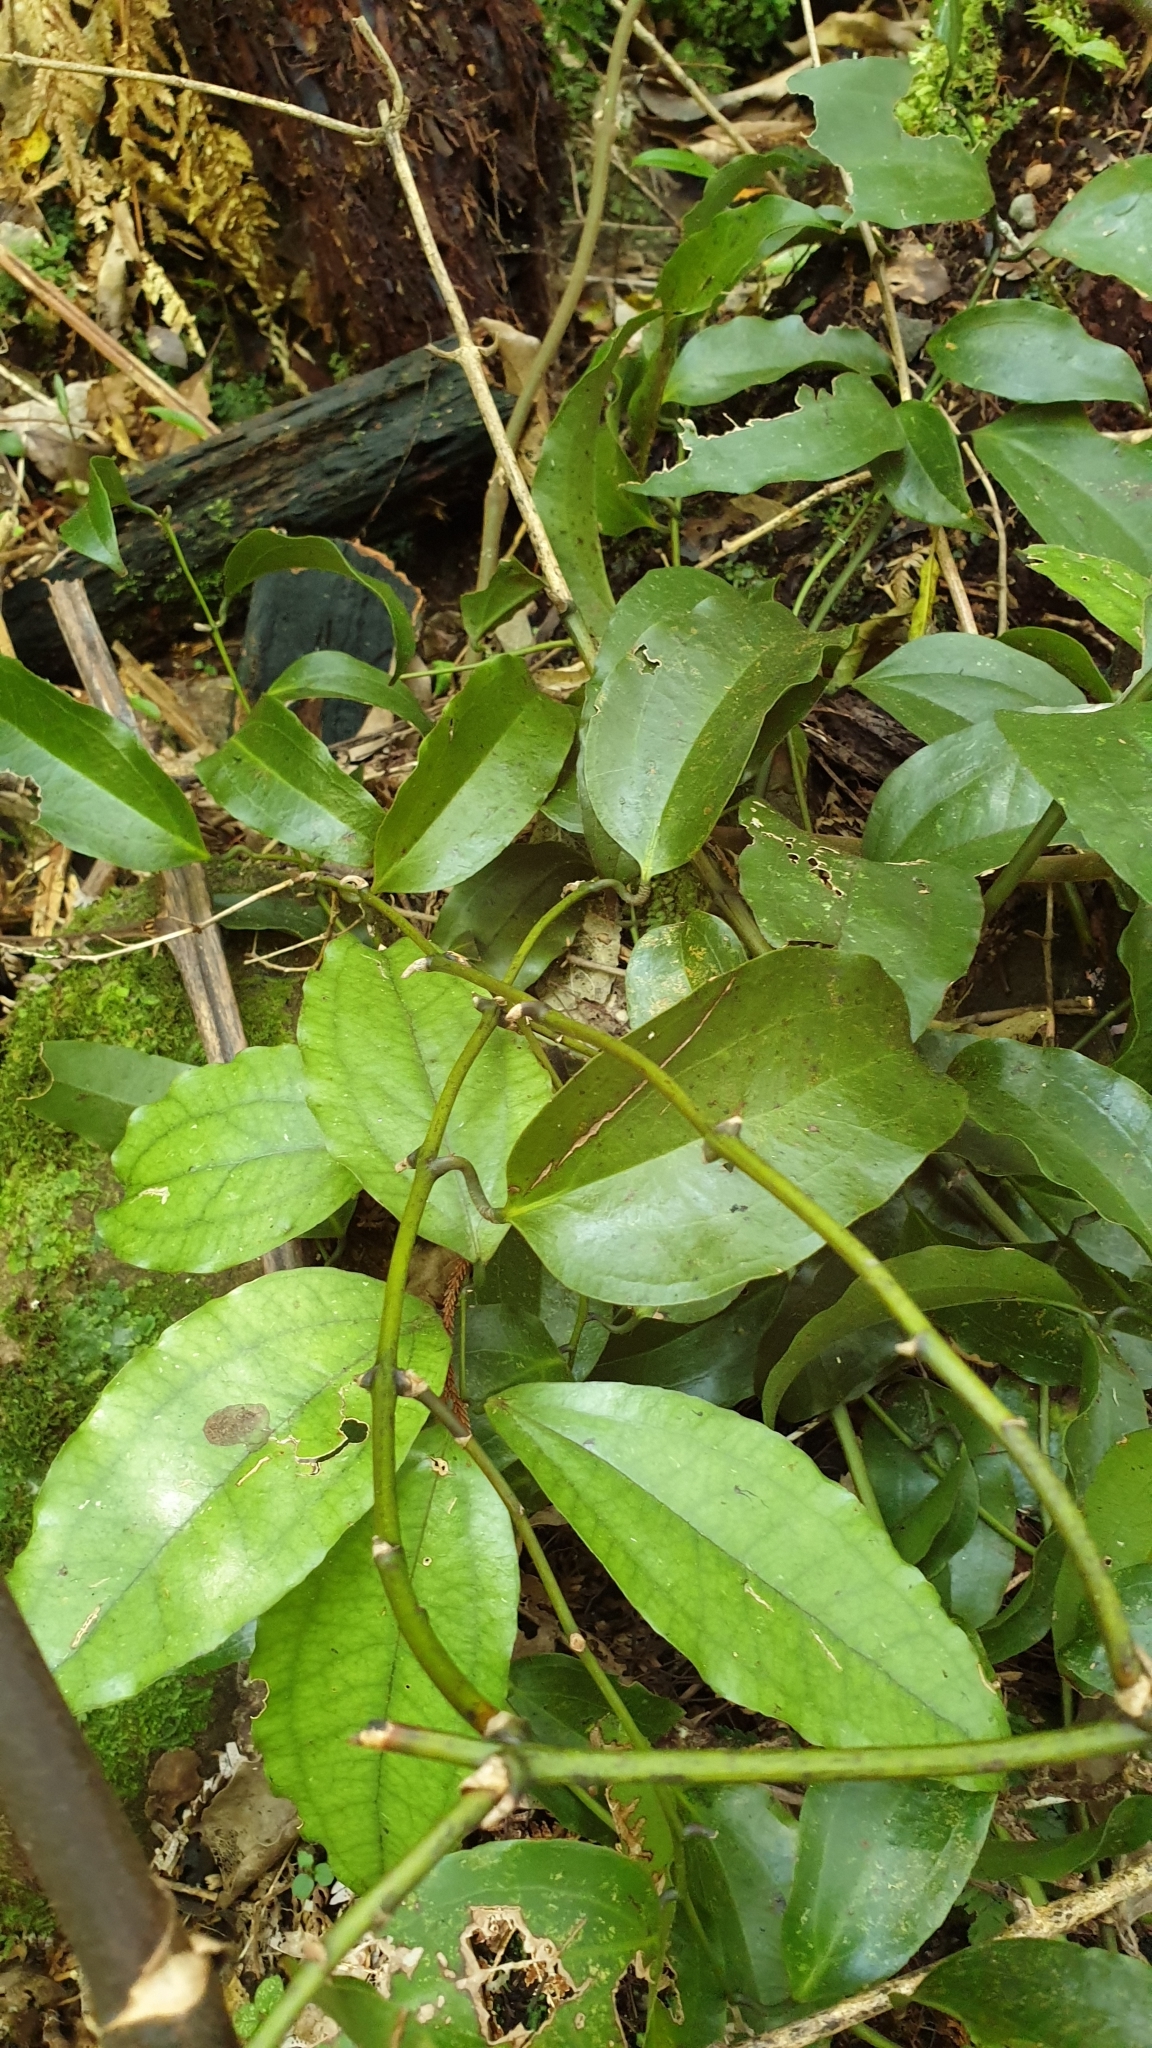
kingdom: Plantae
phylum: Tracheophyta
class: Liliopsida
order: Liliales
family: Ripogonaceae
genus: Ripogonum
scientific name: Ripogonum scandens
